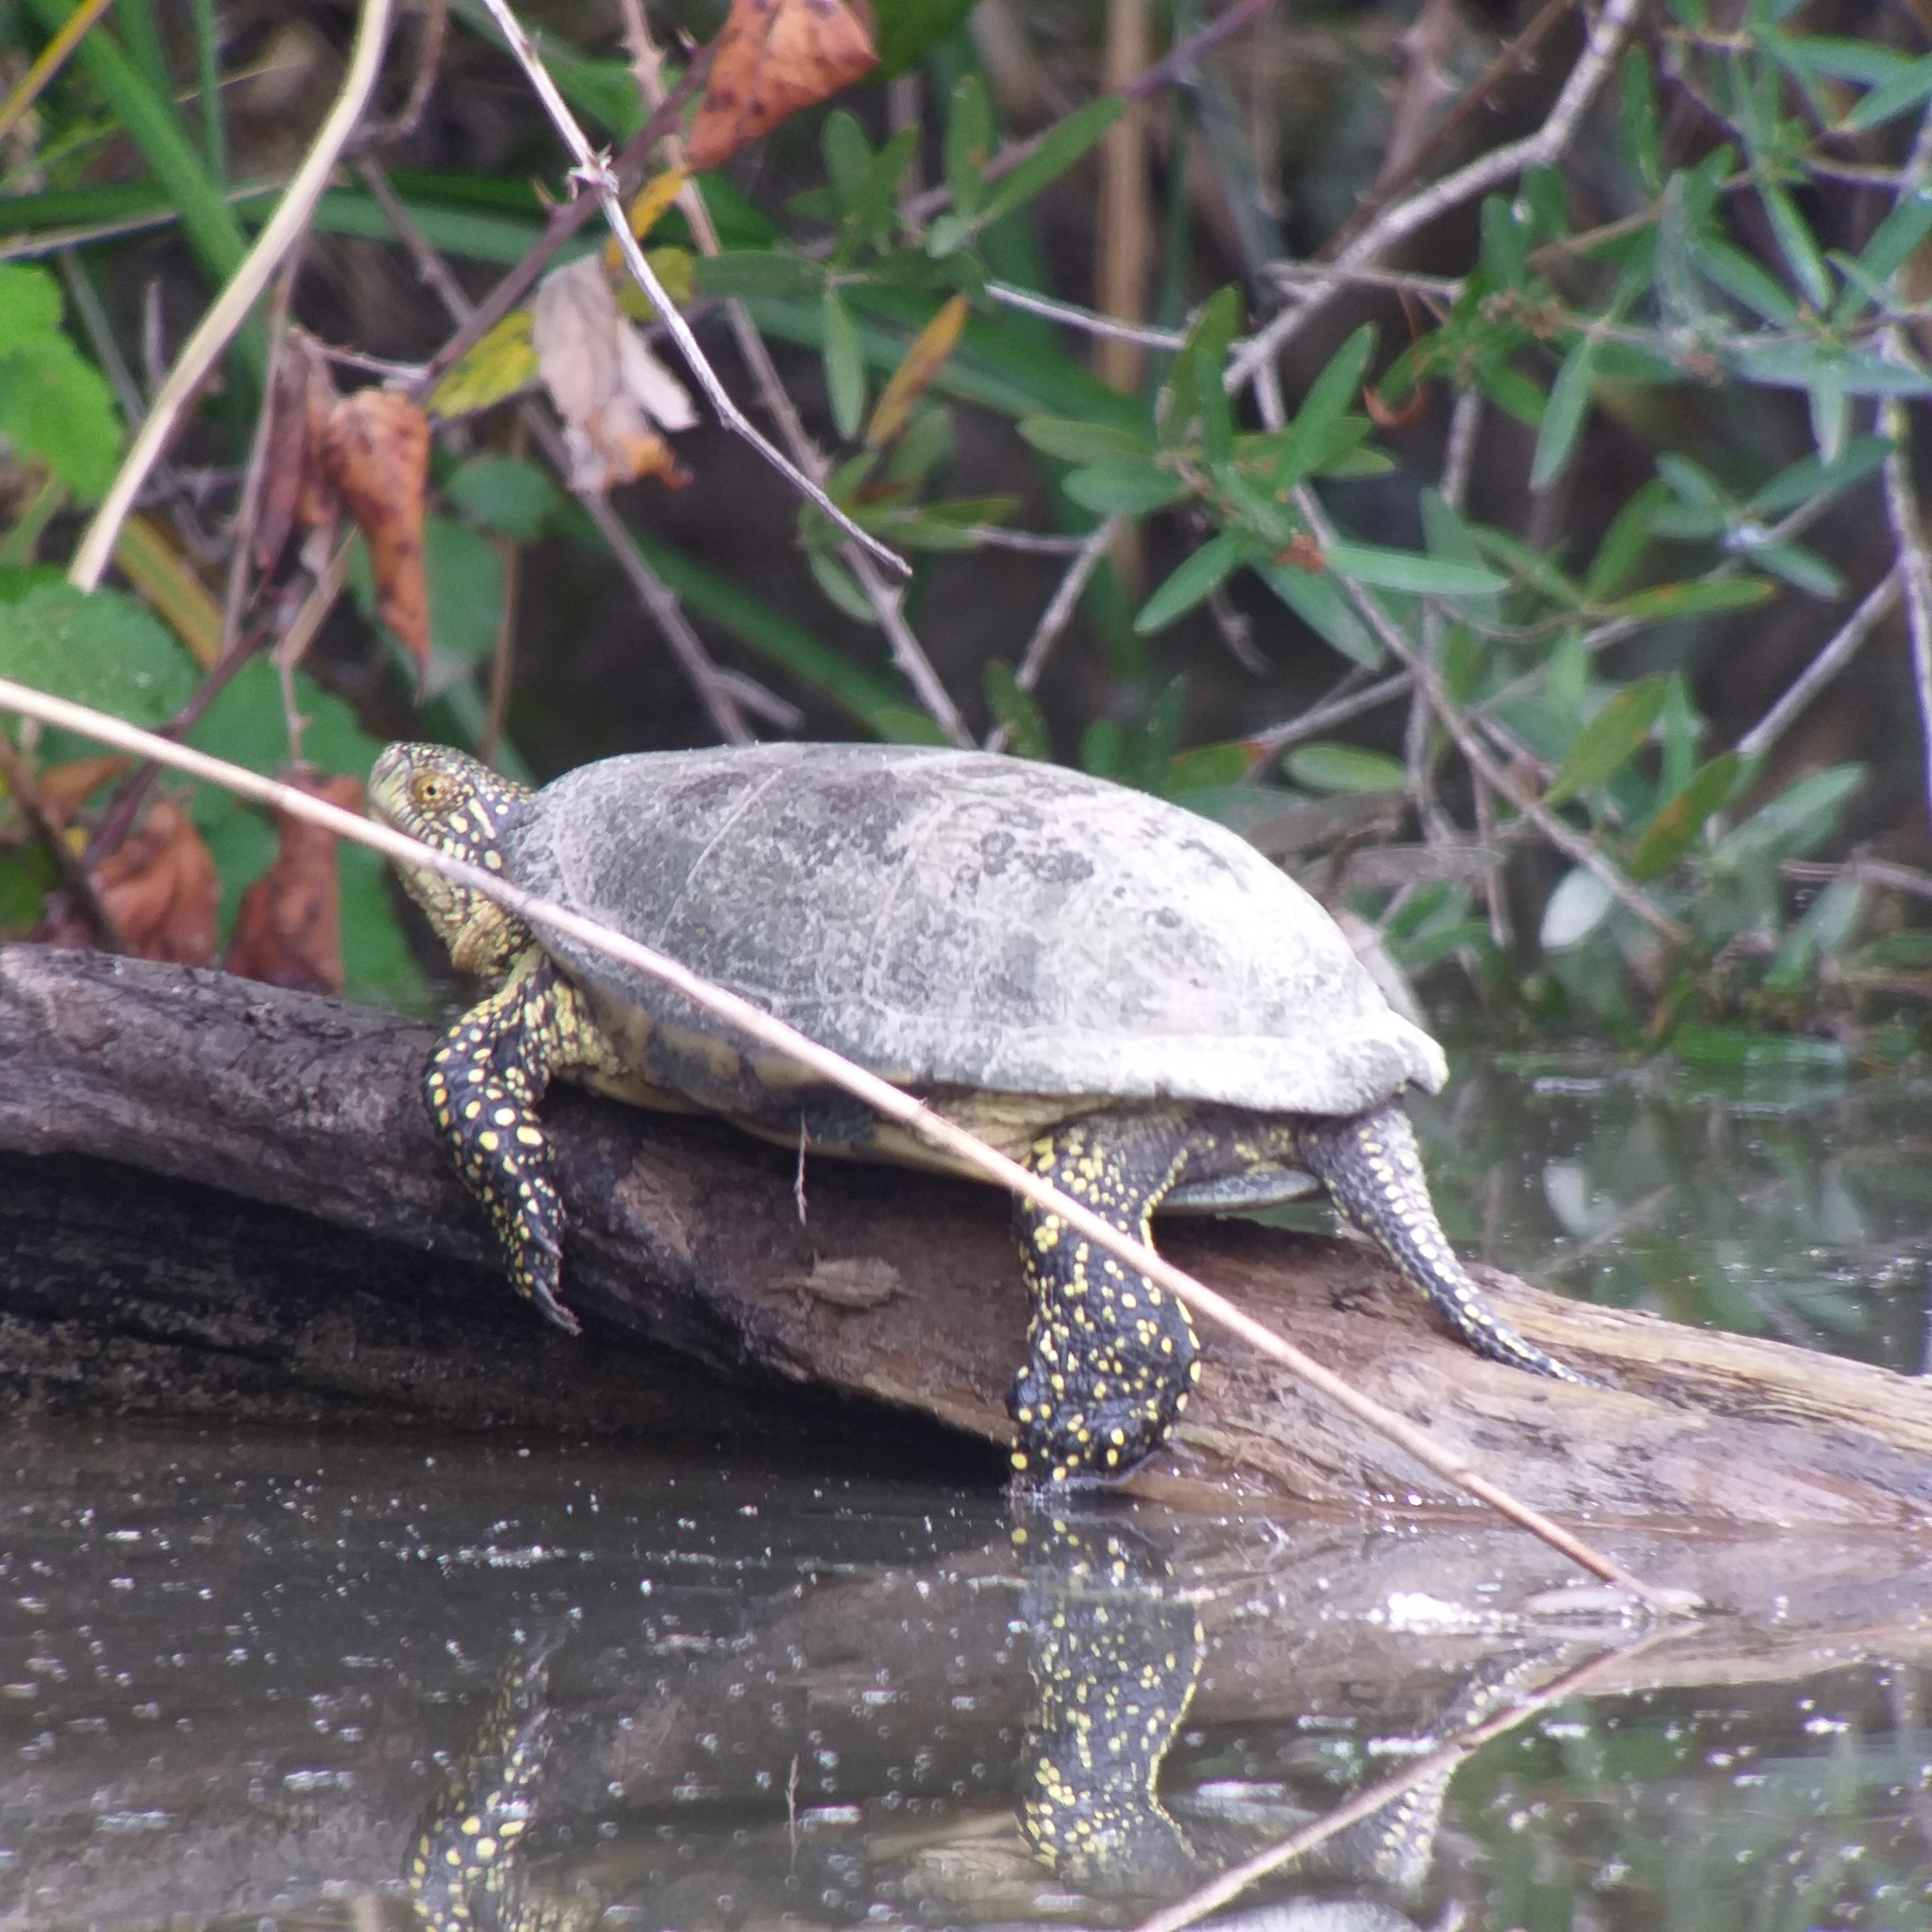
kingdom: Animalia
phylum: Chordata
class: Testudines
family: Emydidae
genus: Emys
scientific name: Emys orbicularis
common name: European pond turtle
